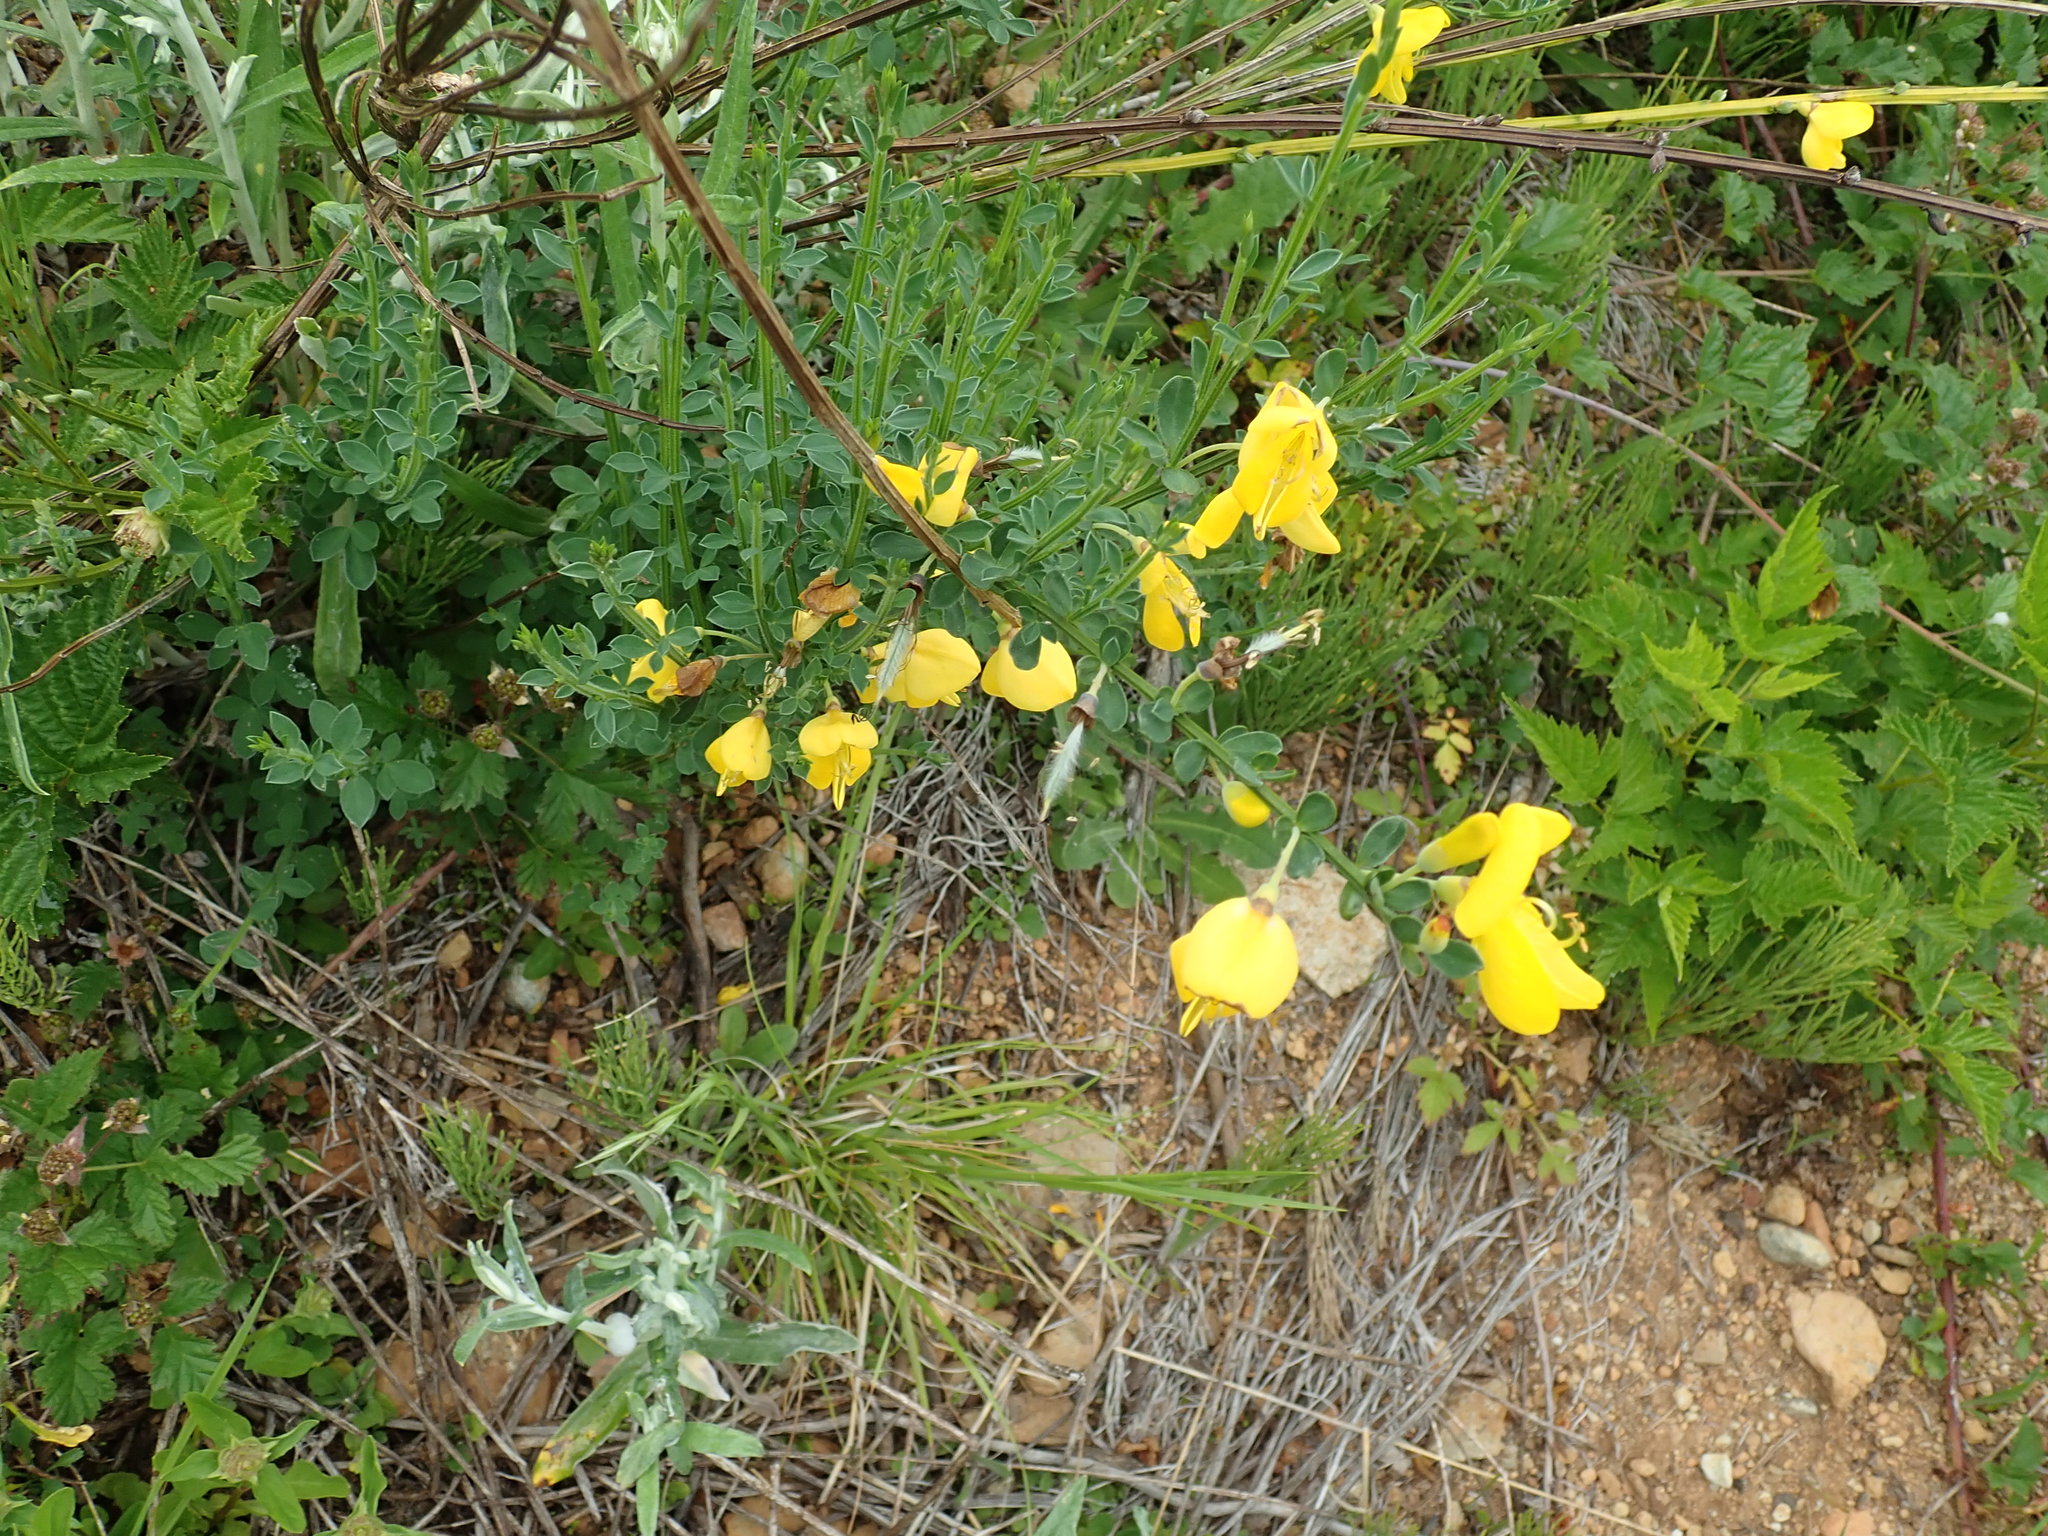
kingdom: Plantae
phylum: Tracheophyta
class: Magnoliopsida
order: Fabales
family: Fabaceae
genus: Cytisus
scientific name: Cytisus scoparius
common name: Scotch broom
